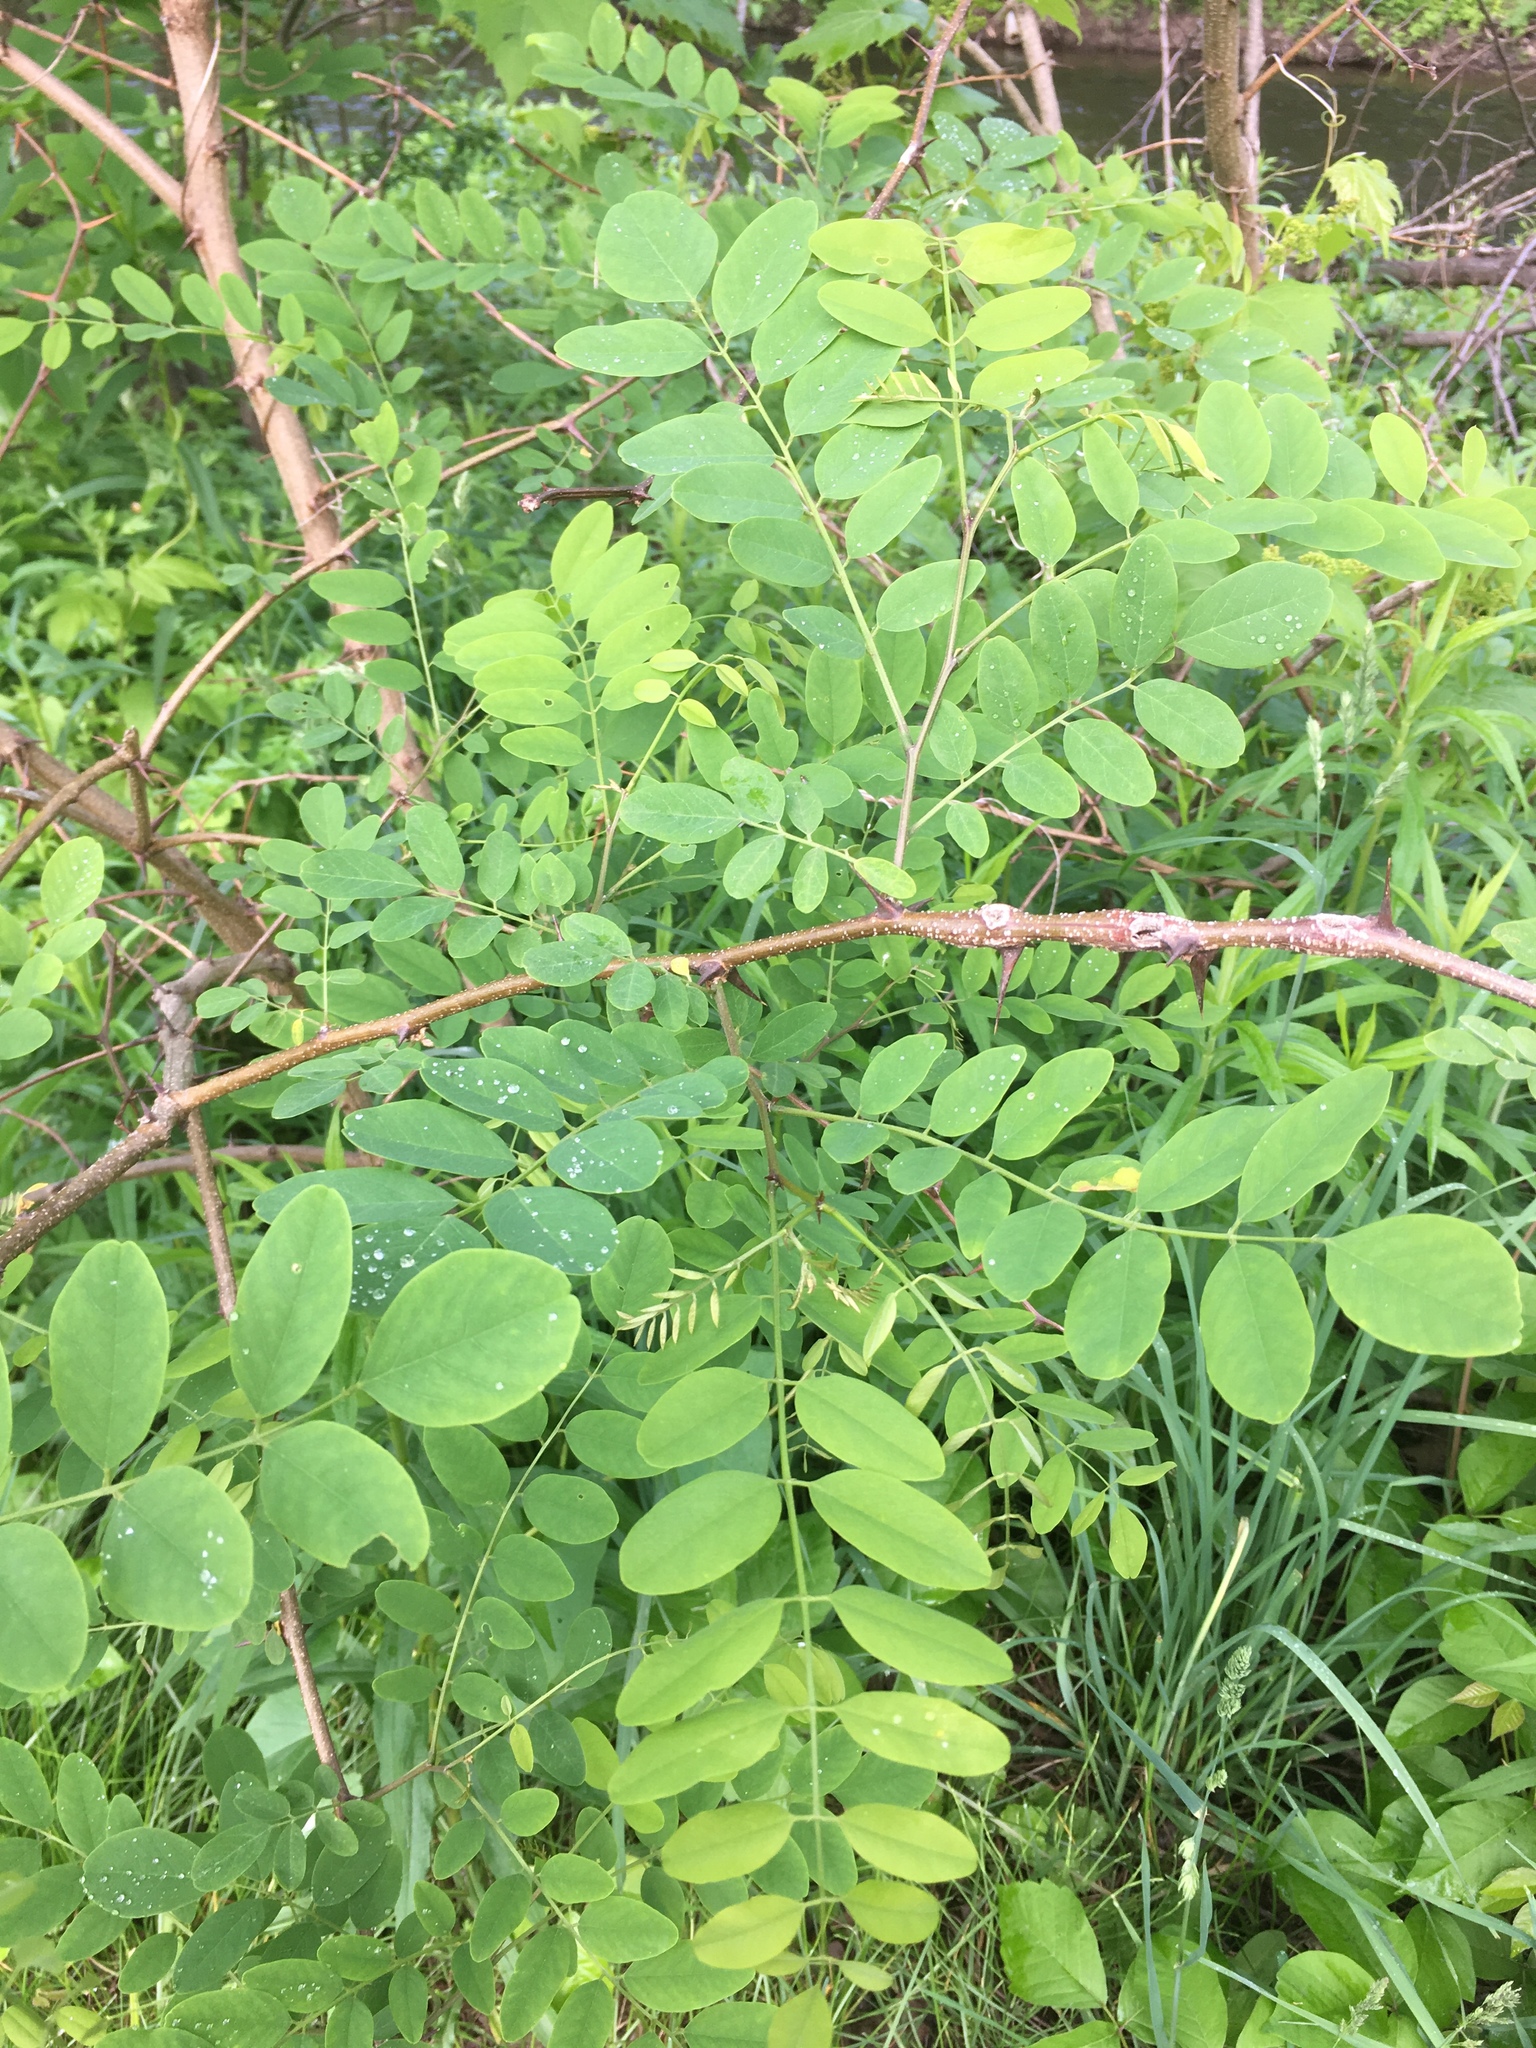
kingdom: Plantae
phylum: Tracheophyta
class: Magnoliopsida
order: Fabales
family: Fabaceae
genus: Robinia
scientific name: Robinia pseudoacacia
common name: Black locust
